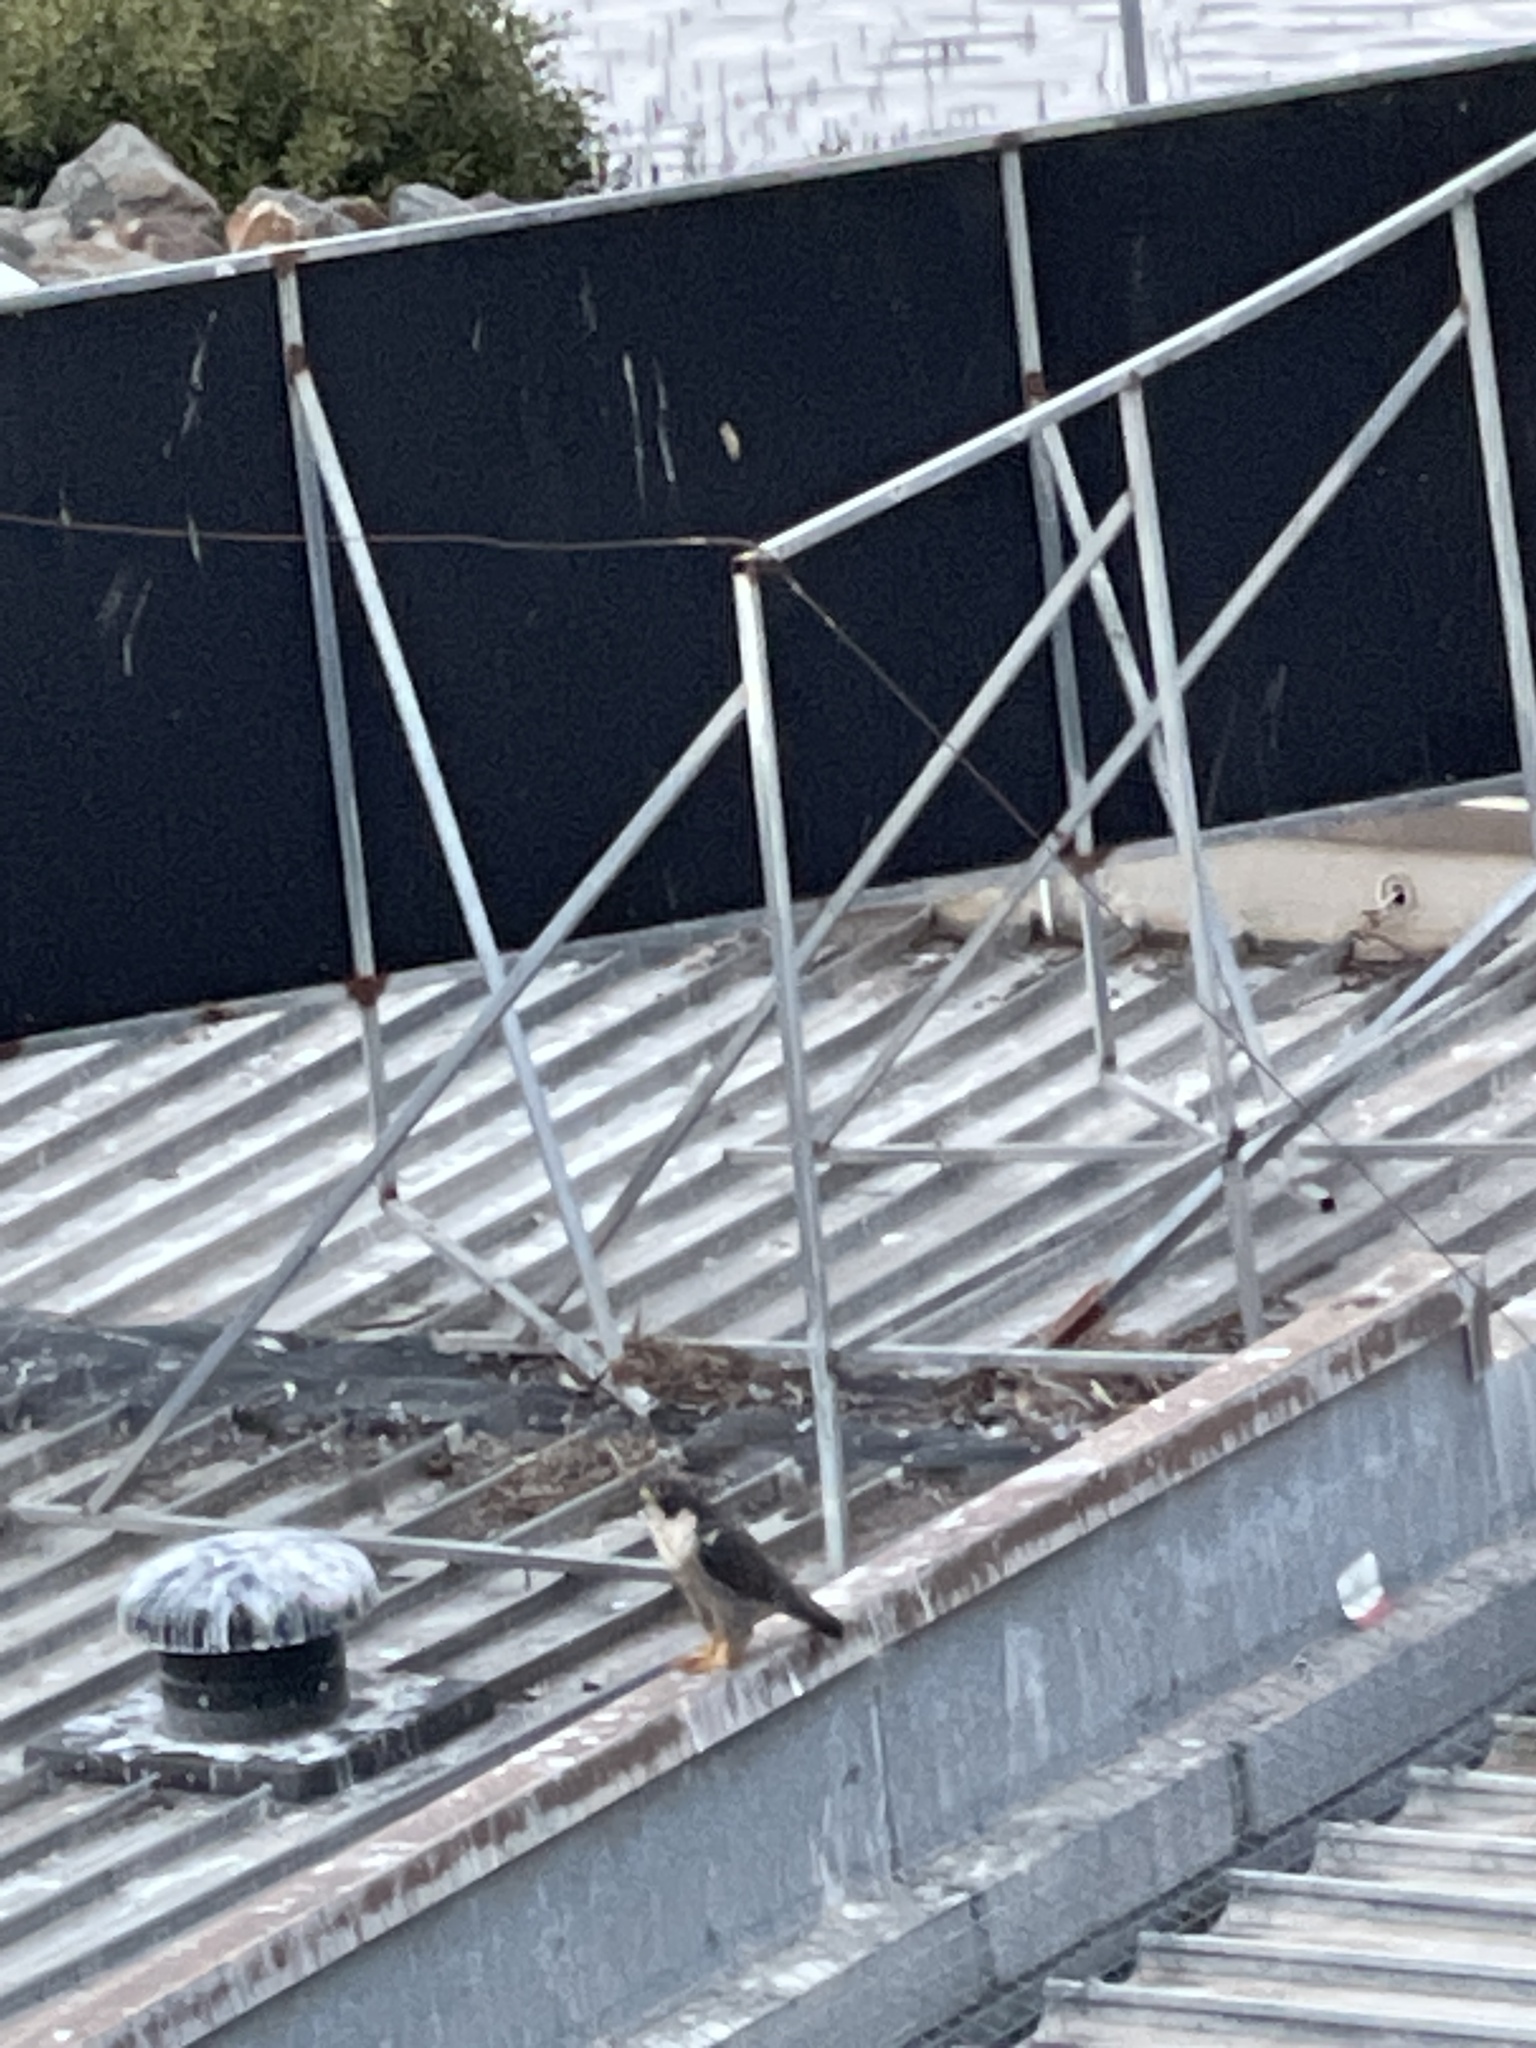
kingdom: Animalia
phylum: Chordata
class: Aves
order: Falconiformes
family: Falconidae
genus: Falco
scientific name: Falco peregrinus
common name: Peregrine falcon
